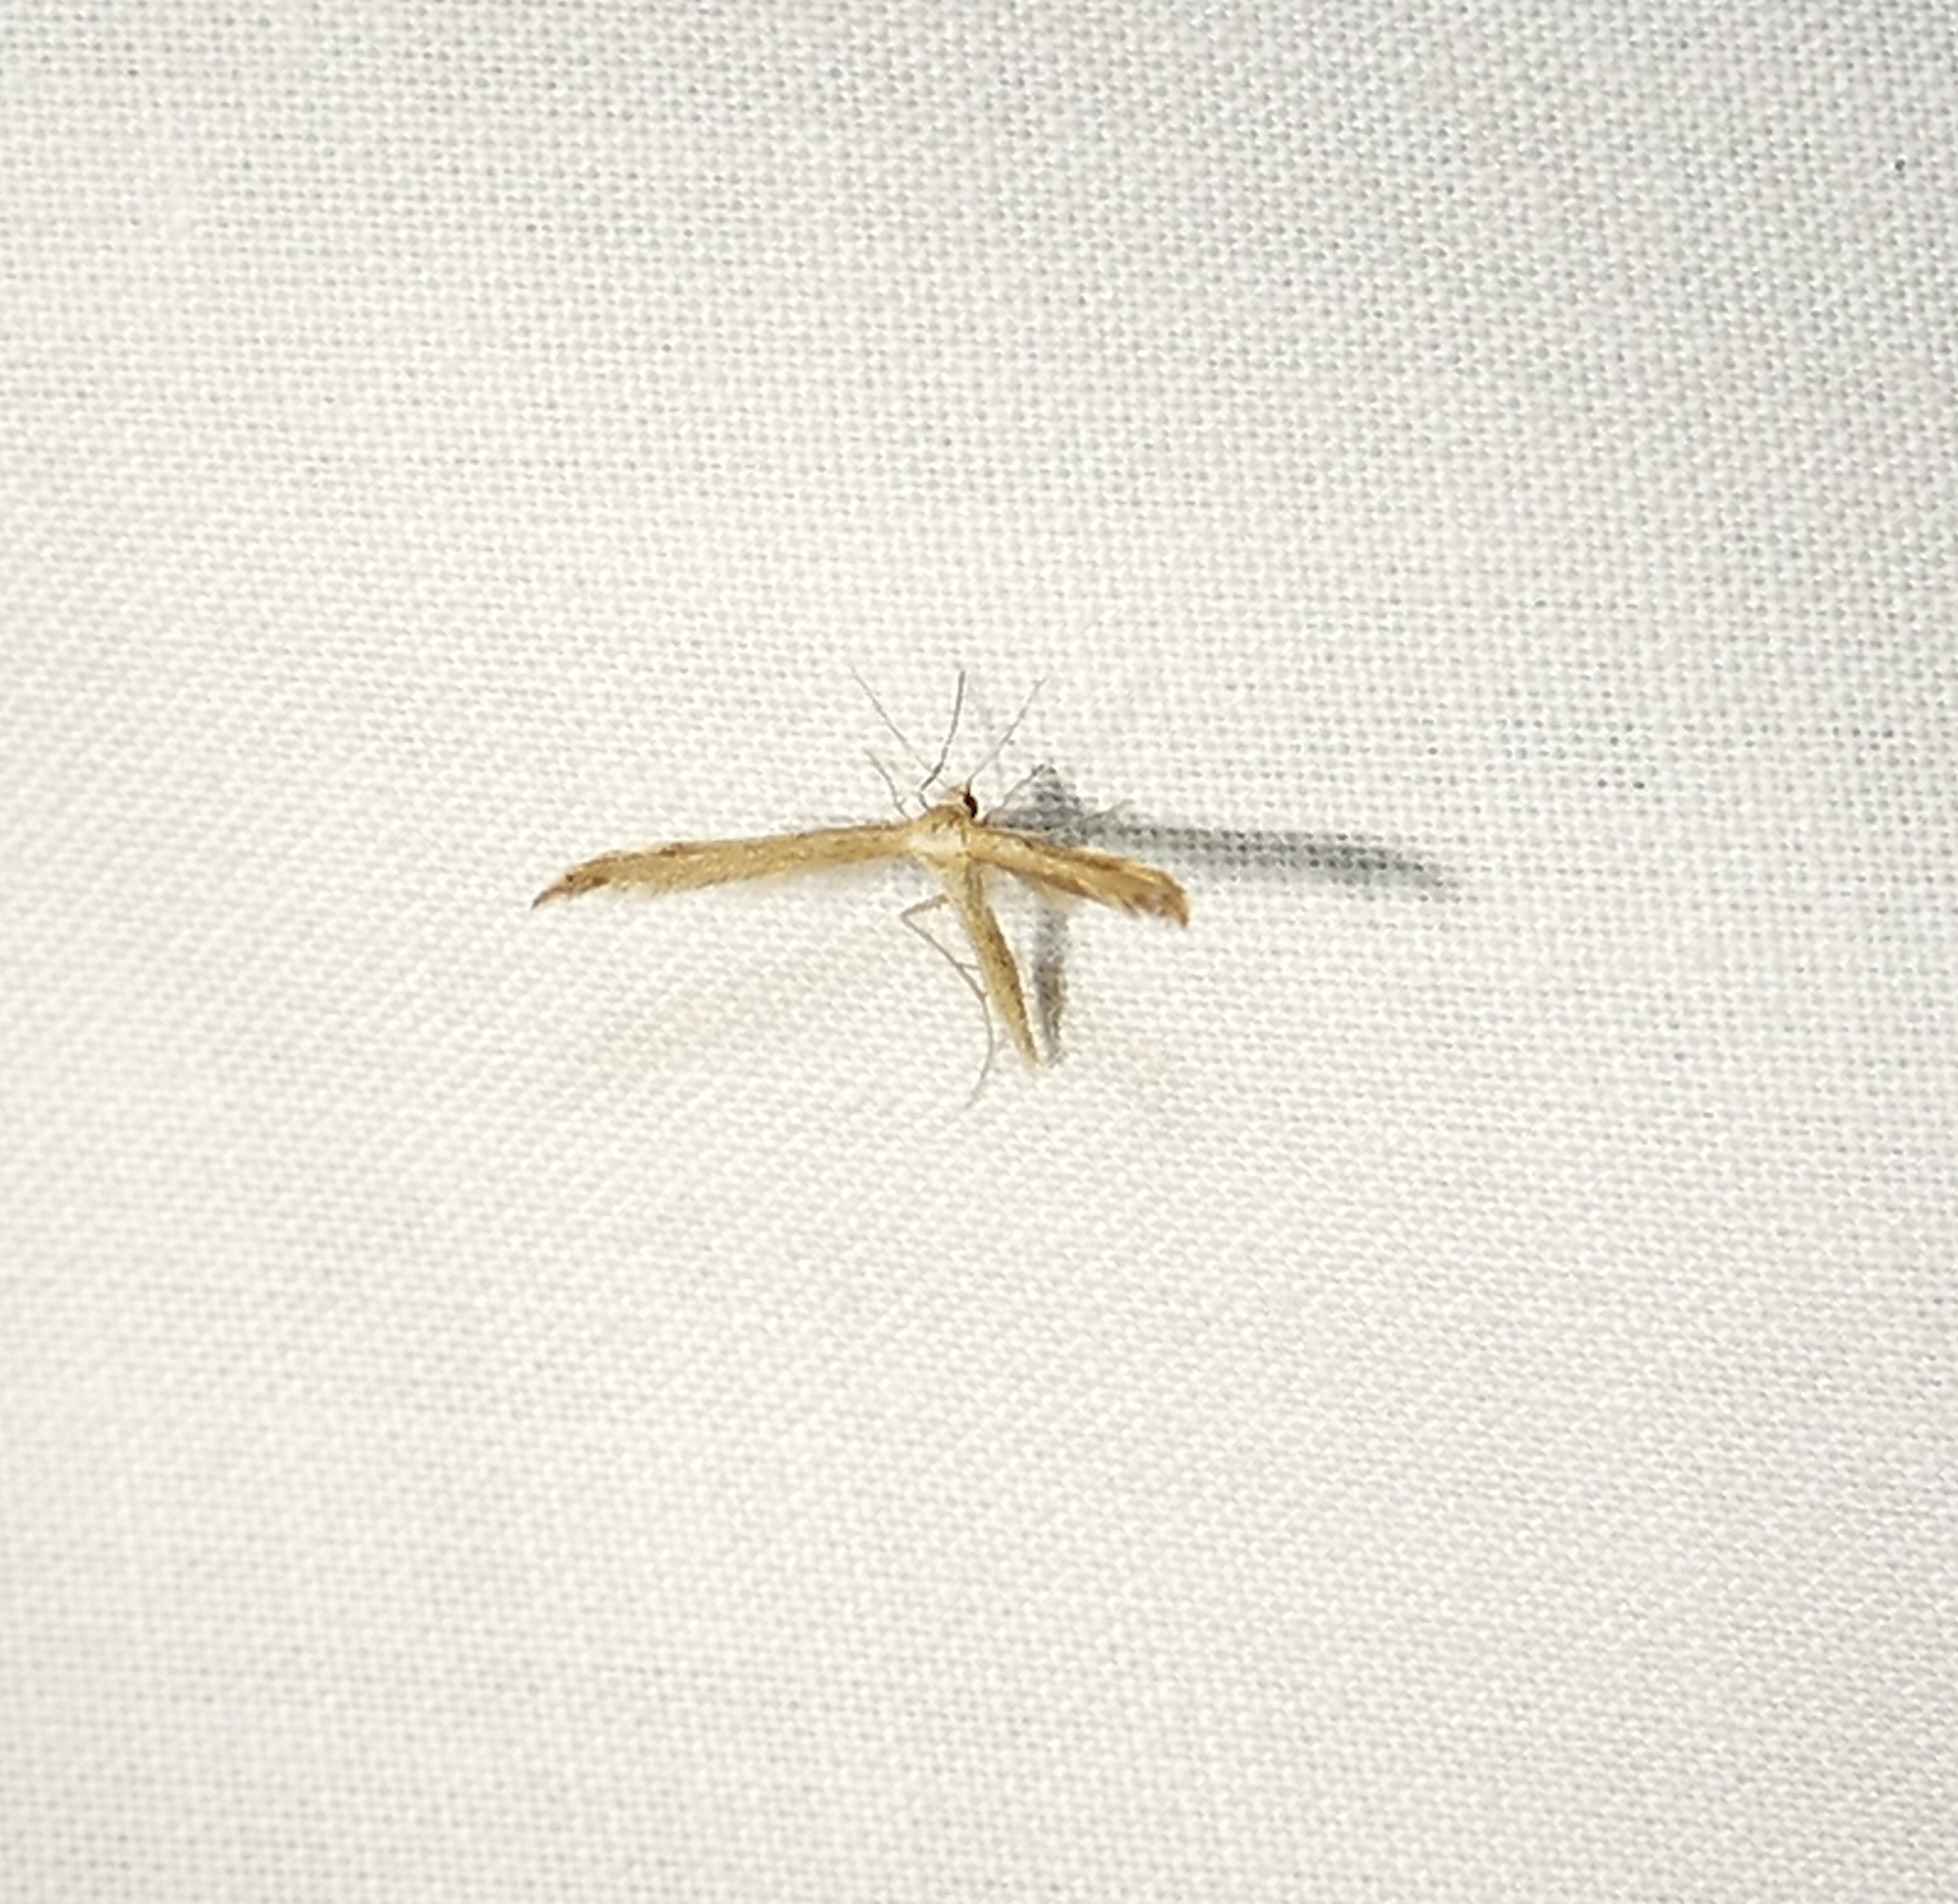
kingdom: Animalia
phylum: Arthropoda
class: Insecta
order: Lepidoptera
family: Pterophoridae
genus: Lioptilodes
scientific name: Lioptilodes albistriolatus
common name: Moth
